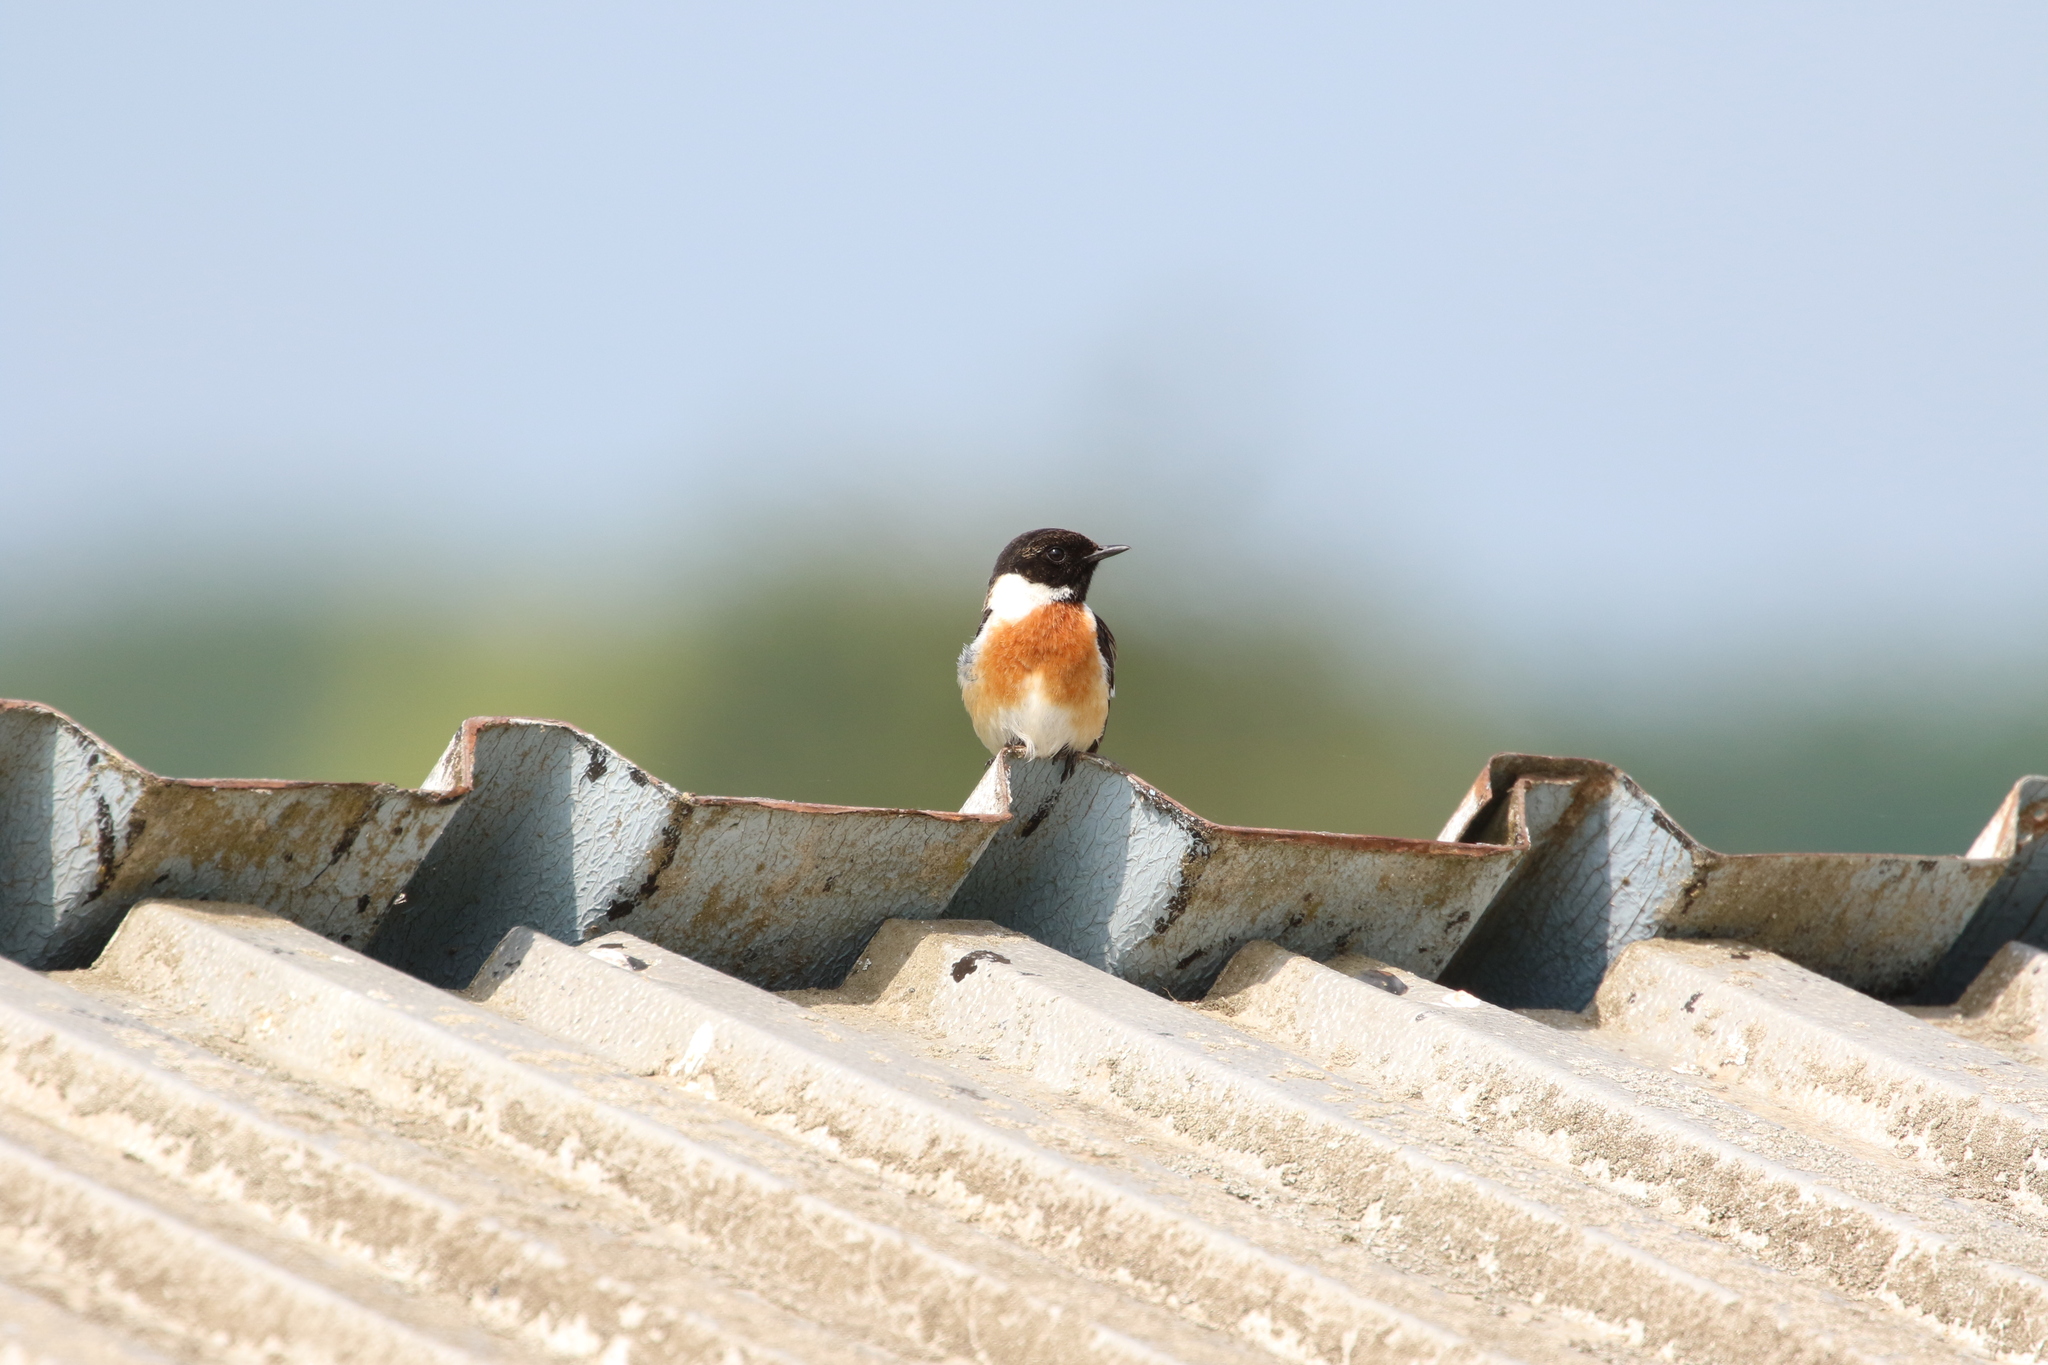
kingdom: Animalia
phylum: Chordata
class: Aves
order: Passeriformes
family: Muscicapidae
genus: Saxicola
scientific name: Saxicola rubicola
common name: European stonechat
